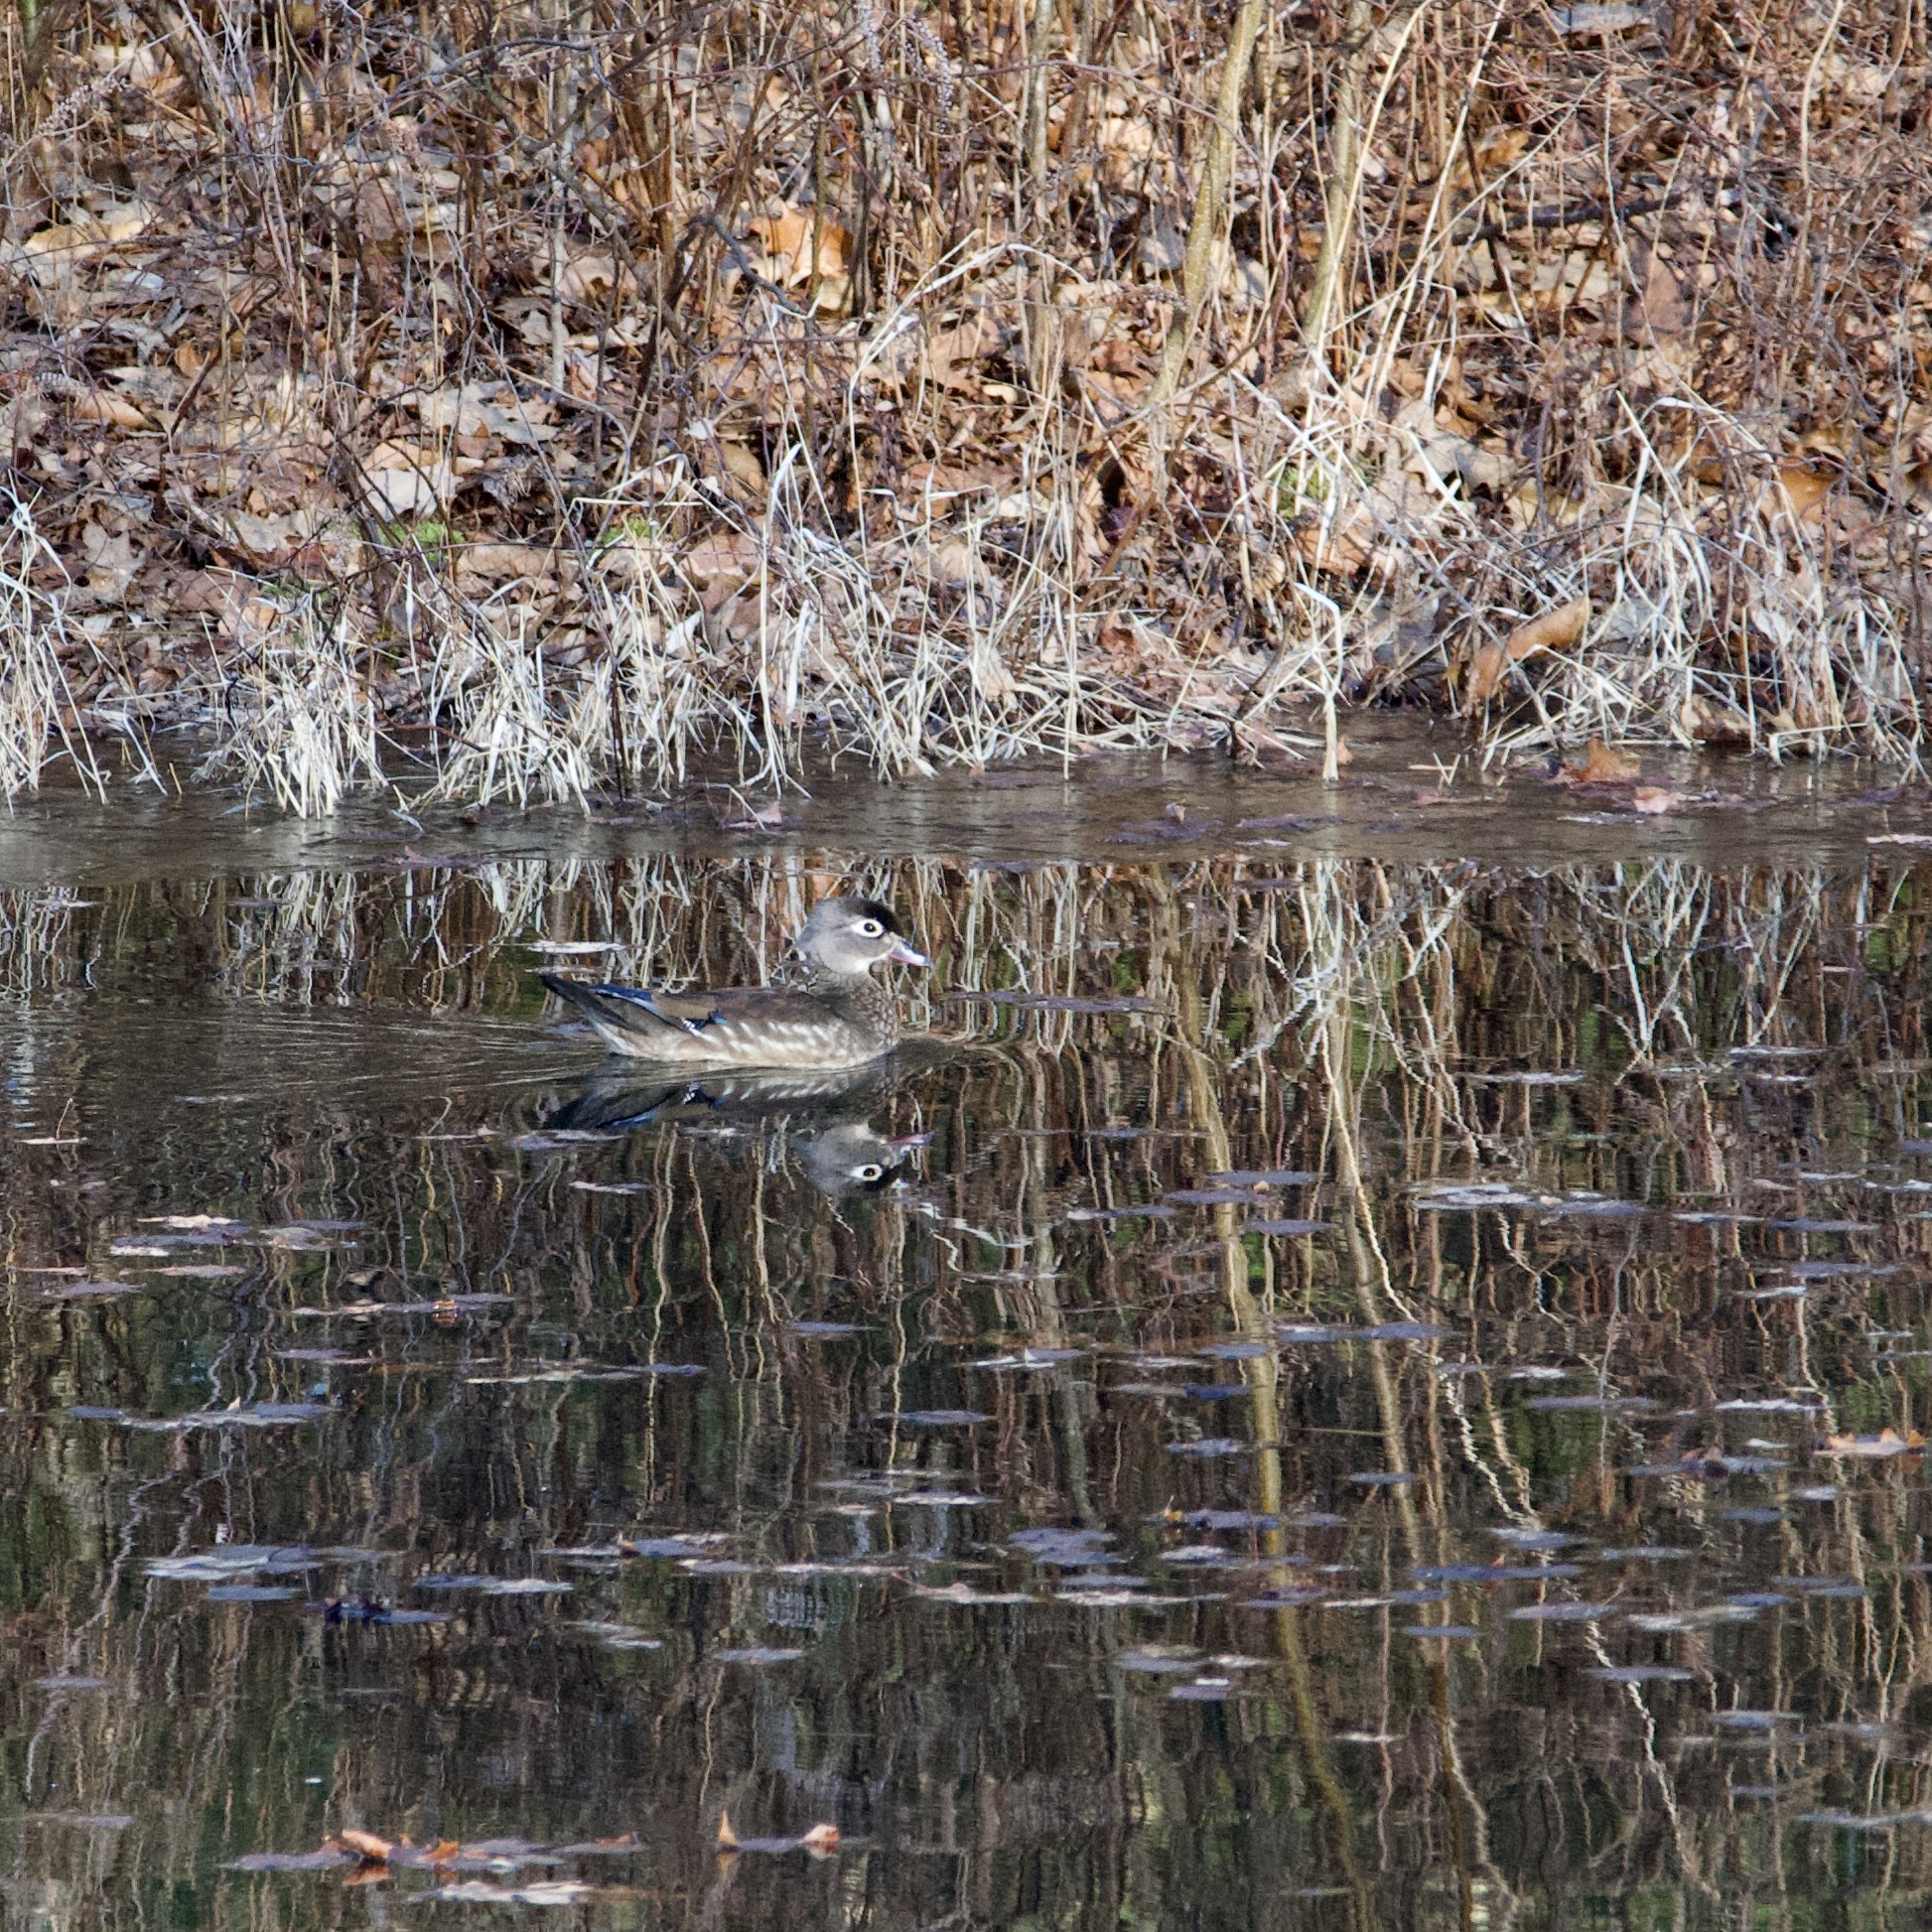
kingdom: Animalia
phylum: Chordata
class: Aves
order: Anseriformes
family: Anatidae
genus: Aix
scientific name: Aix sponsa
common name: Wood duck
